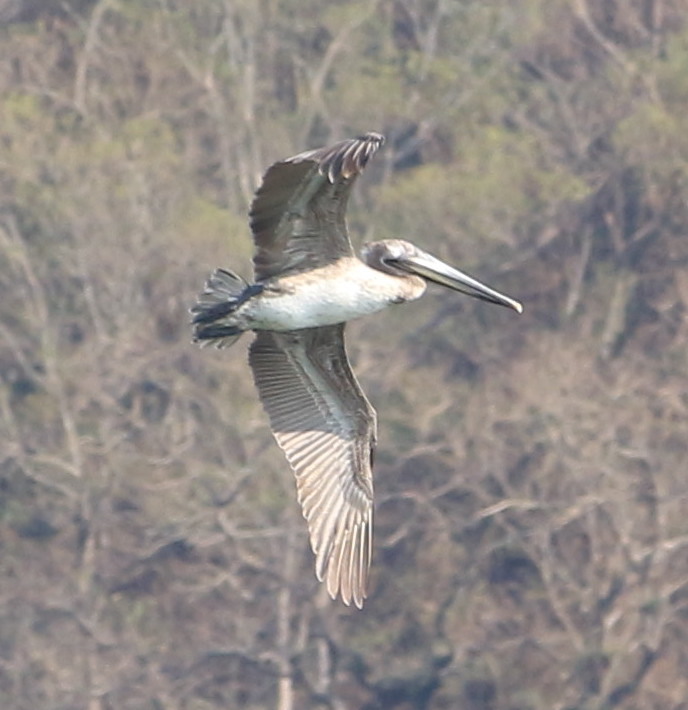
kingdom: Animalia
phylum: Chordata
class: Aves
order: Pelecaniformes
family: Pelecanidae
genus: Pelecanus
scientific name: Pelecanus occidentalis
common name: Brown pelican
